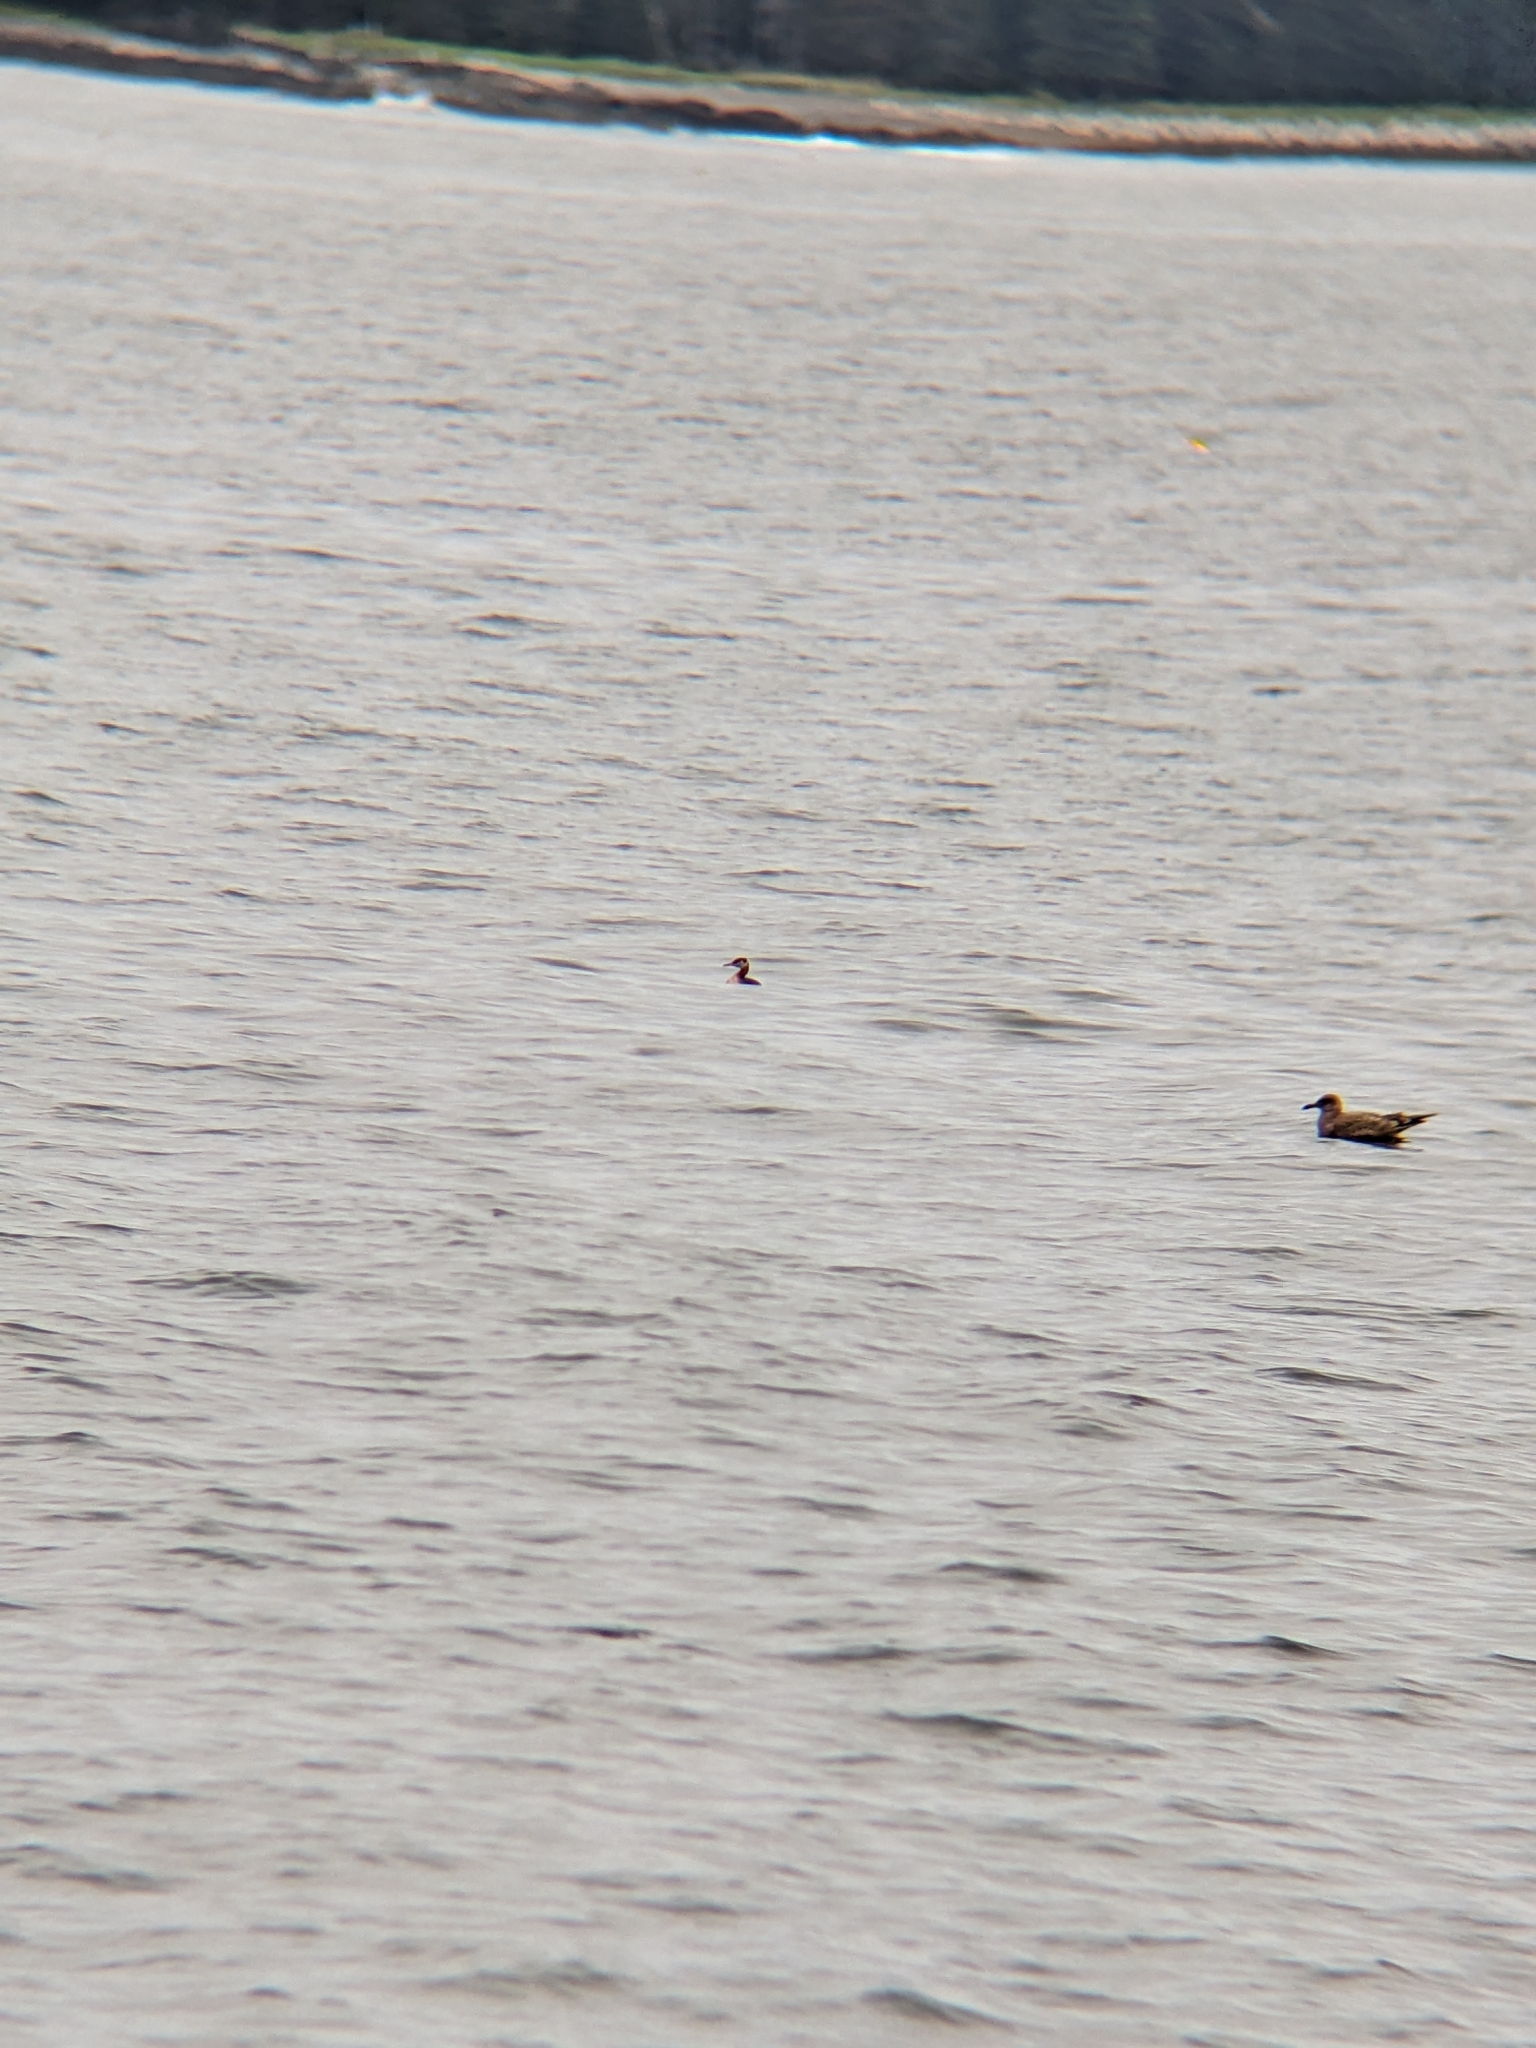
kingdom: Animalia
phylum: Chordata
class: Aves
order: Podicipediformes
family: Podicipedidae
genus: Podiceps
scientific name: Podiceps grisegena
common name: Red-necked grebe
